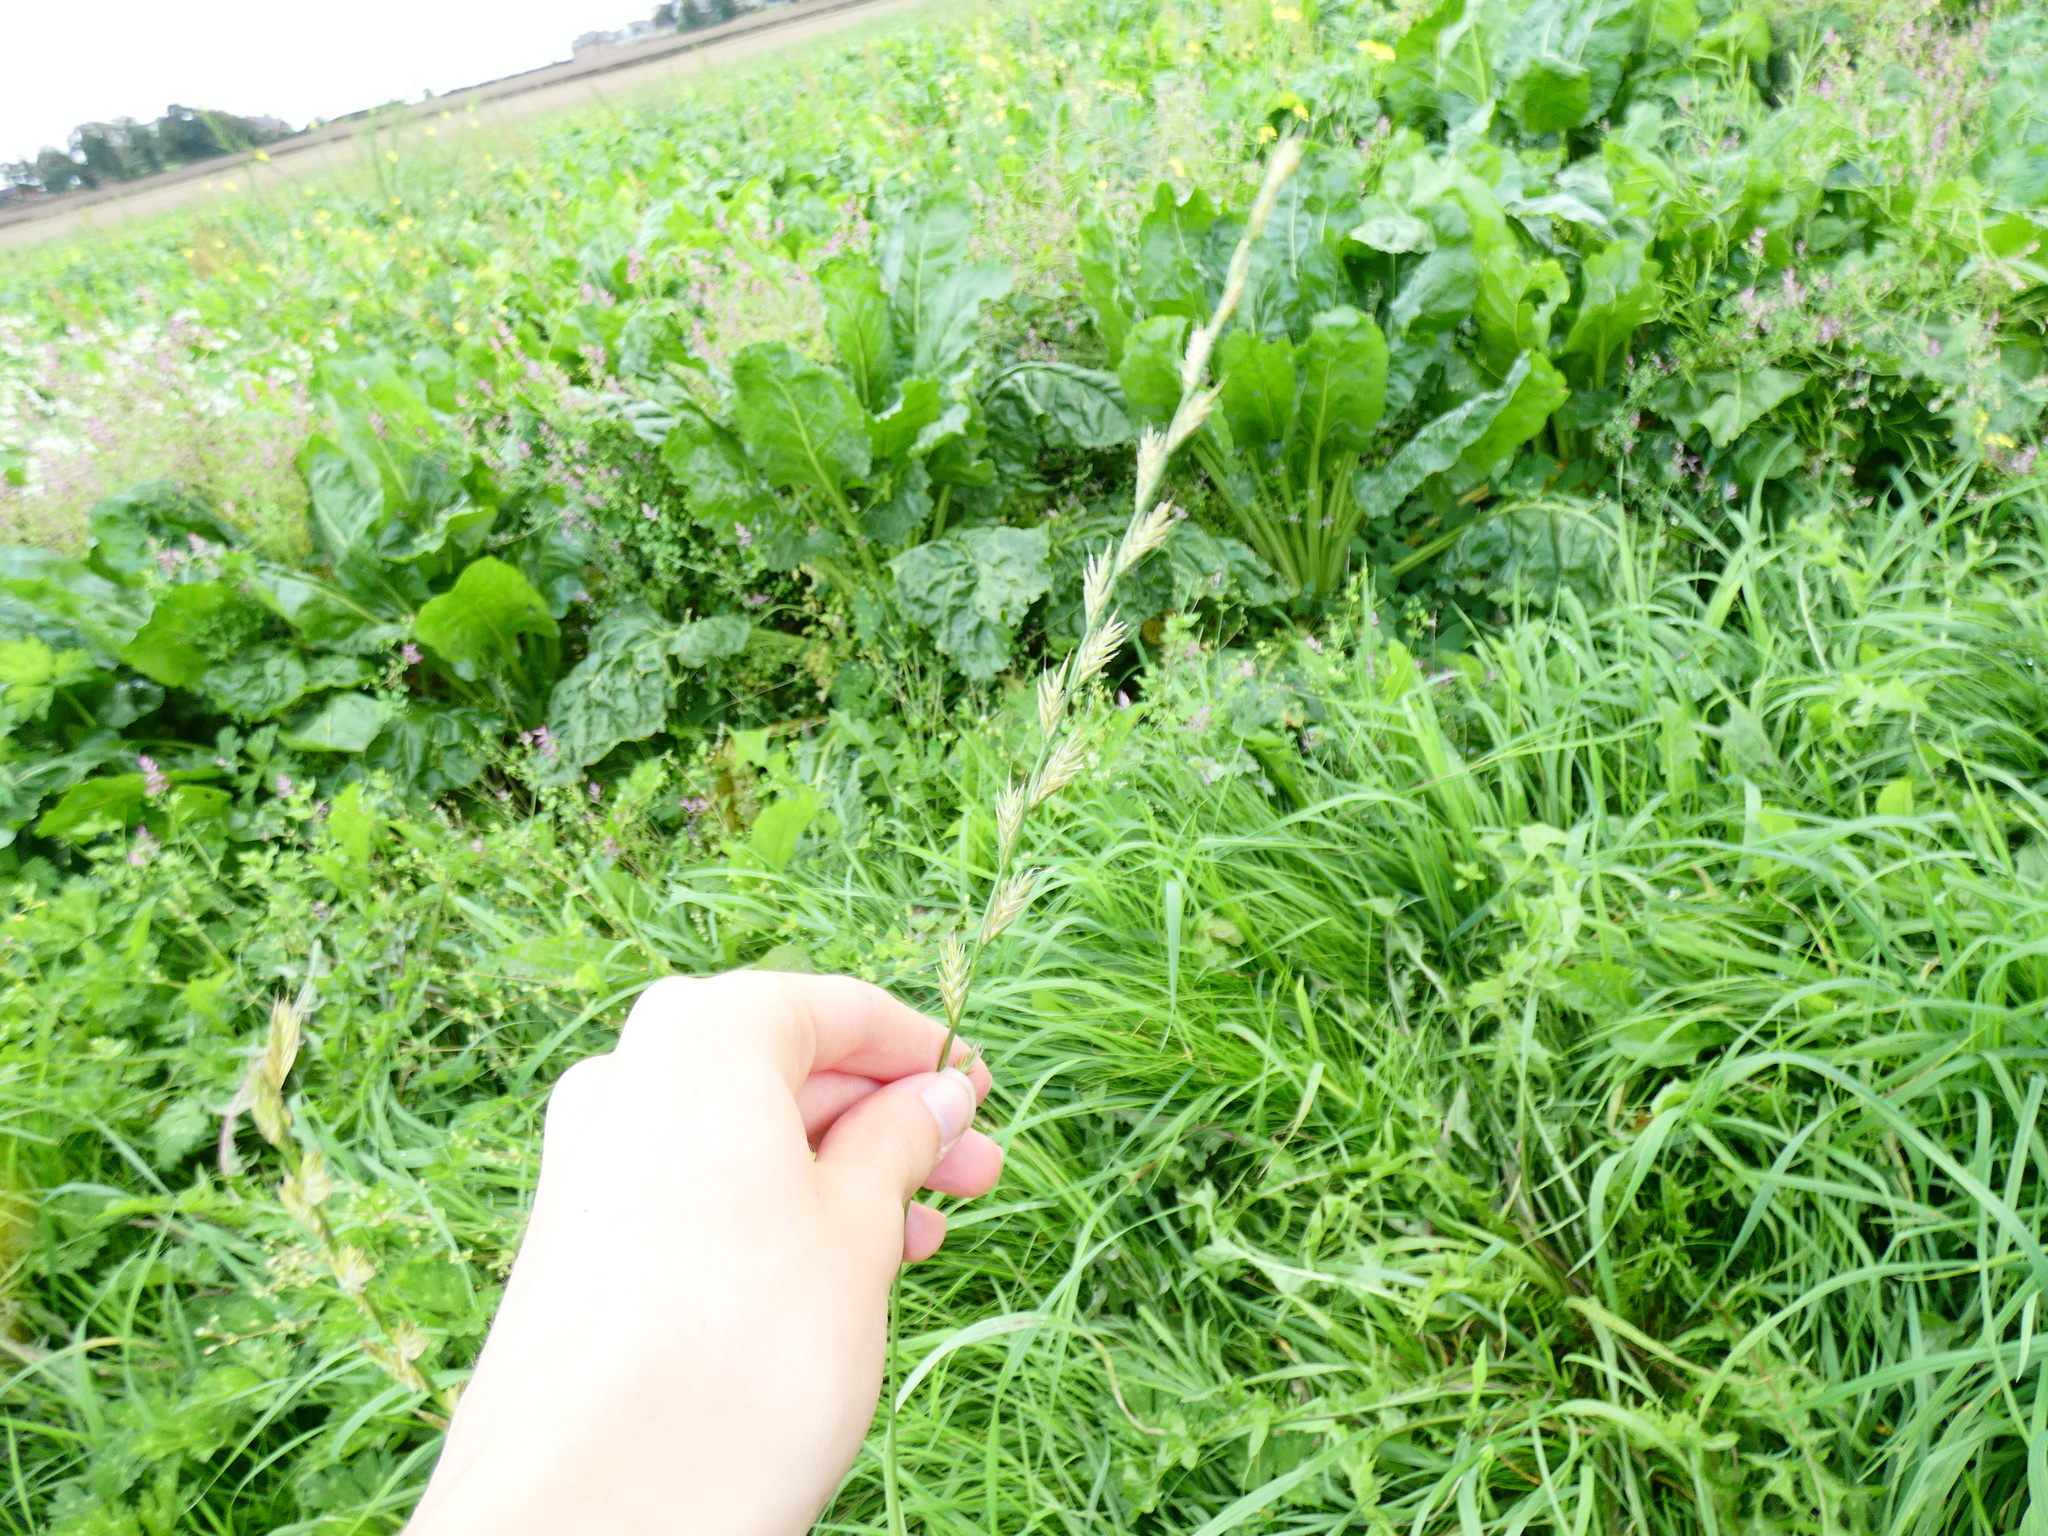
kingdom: Plantae
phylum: Tracheophyta
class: Liliopsida
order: Poales
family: Poaceae
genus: Lolium
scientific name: Lolium multiflorum
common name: Annual ryegrass
